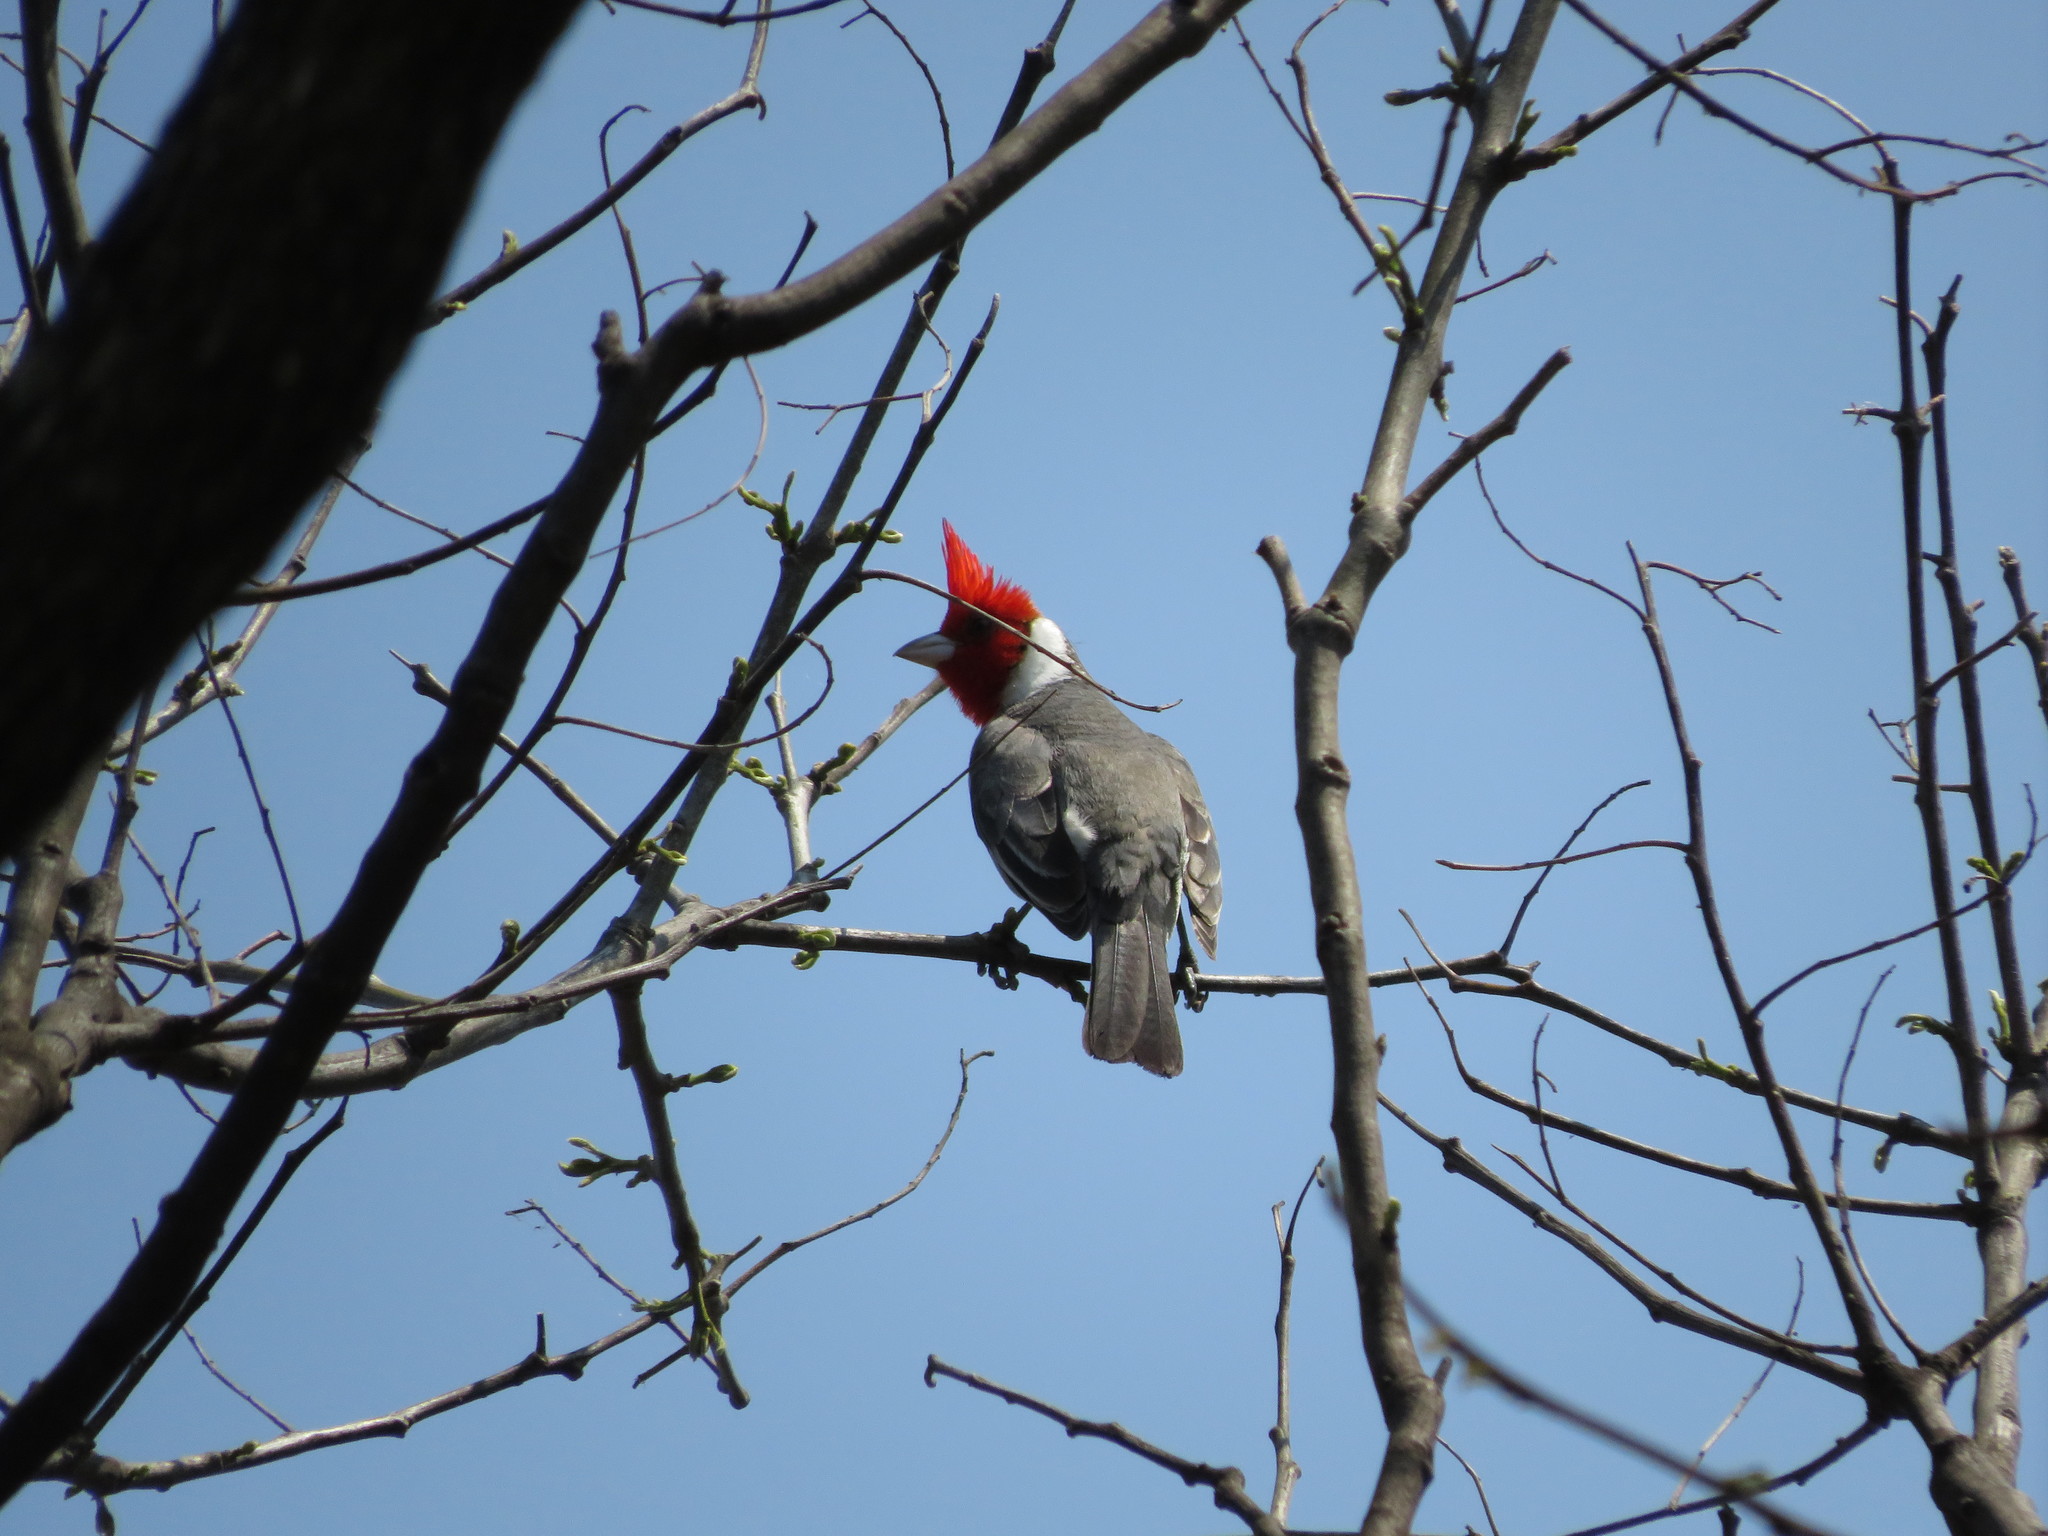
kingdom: Animalia
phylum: Chordata
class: Aves
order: Passeriformes
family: Thraupidae
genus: Paroaria
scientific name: Paroaria coronata
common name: Red-crested cardinal
